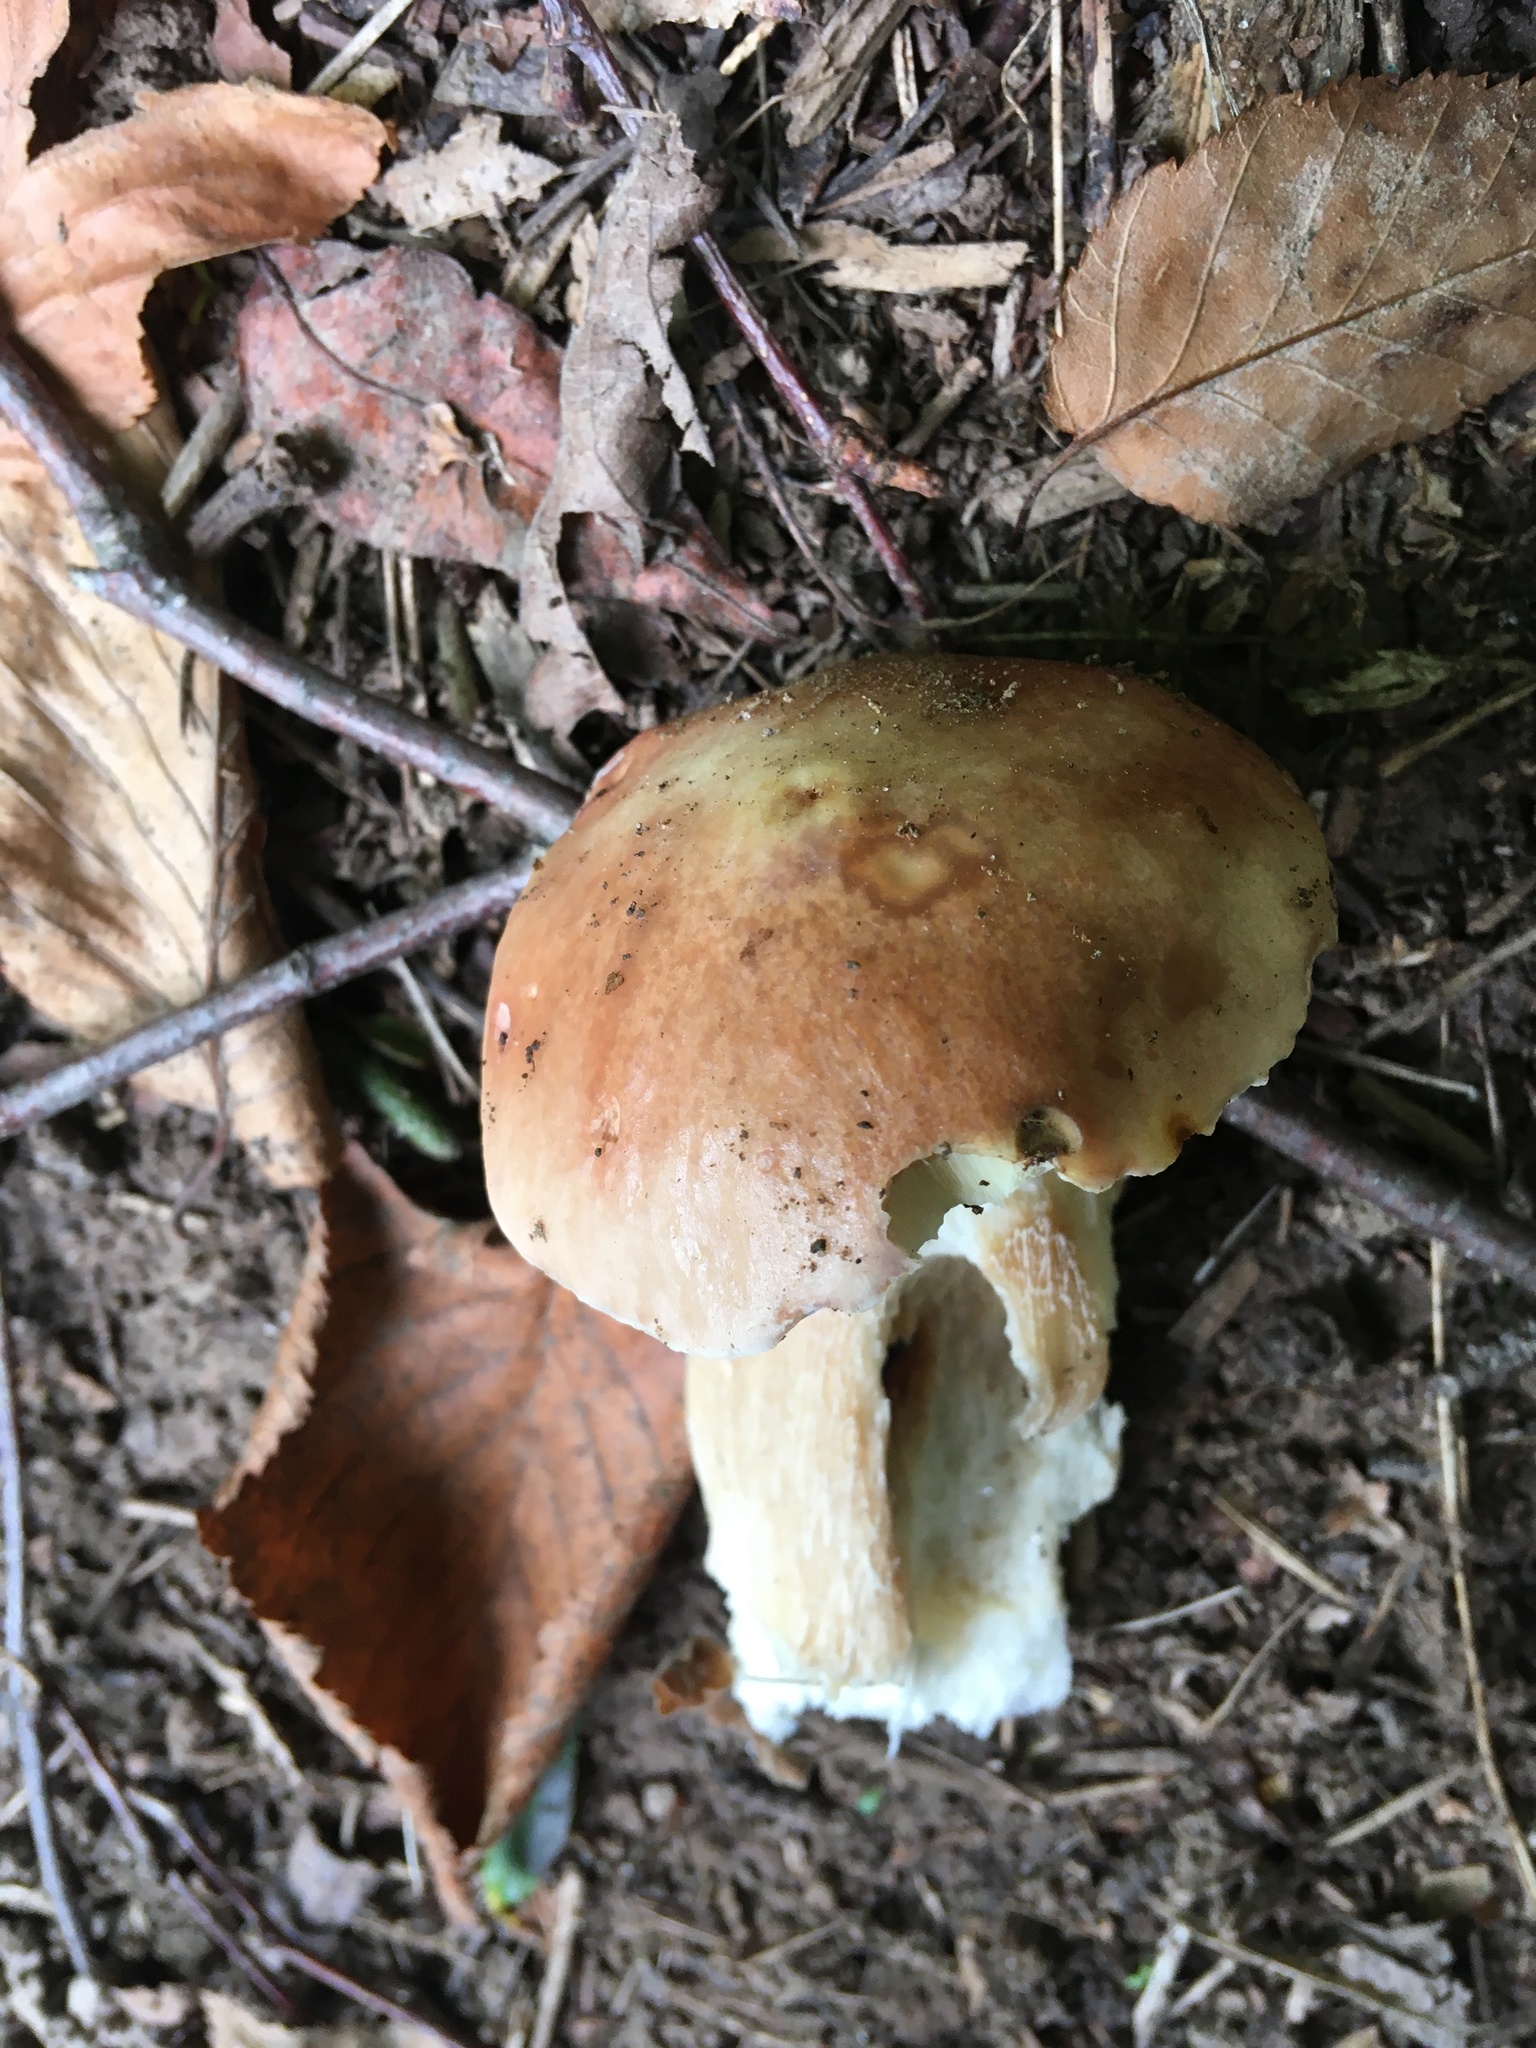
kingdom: Fungi
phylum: Basidiomycota
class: Agaricomycetes
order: Boletales
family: Boletaceae
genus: Boletus
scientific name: Boletus edulis
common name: Cep
